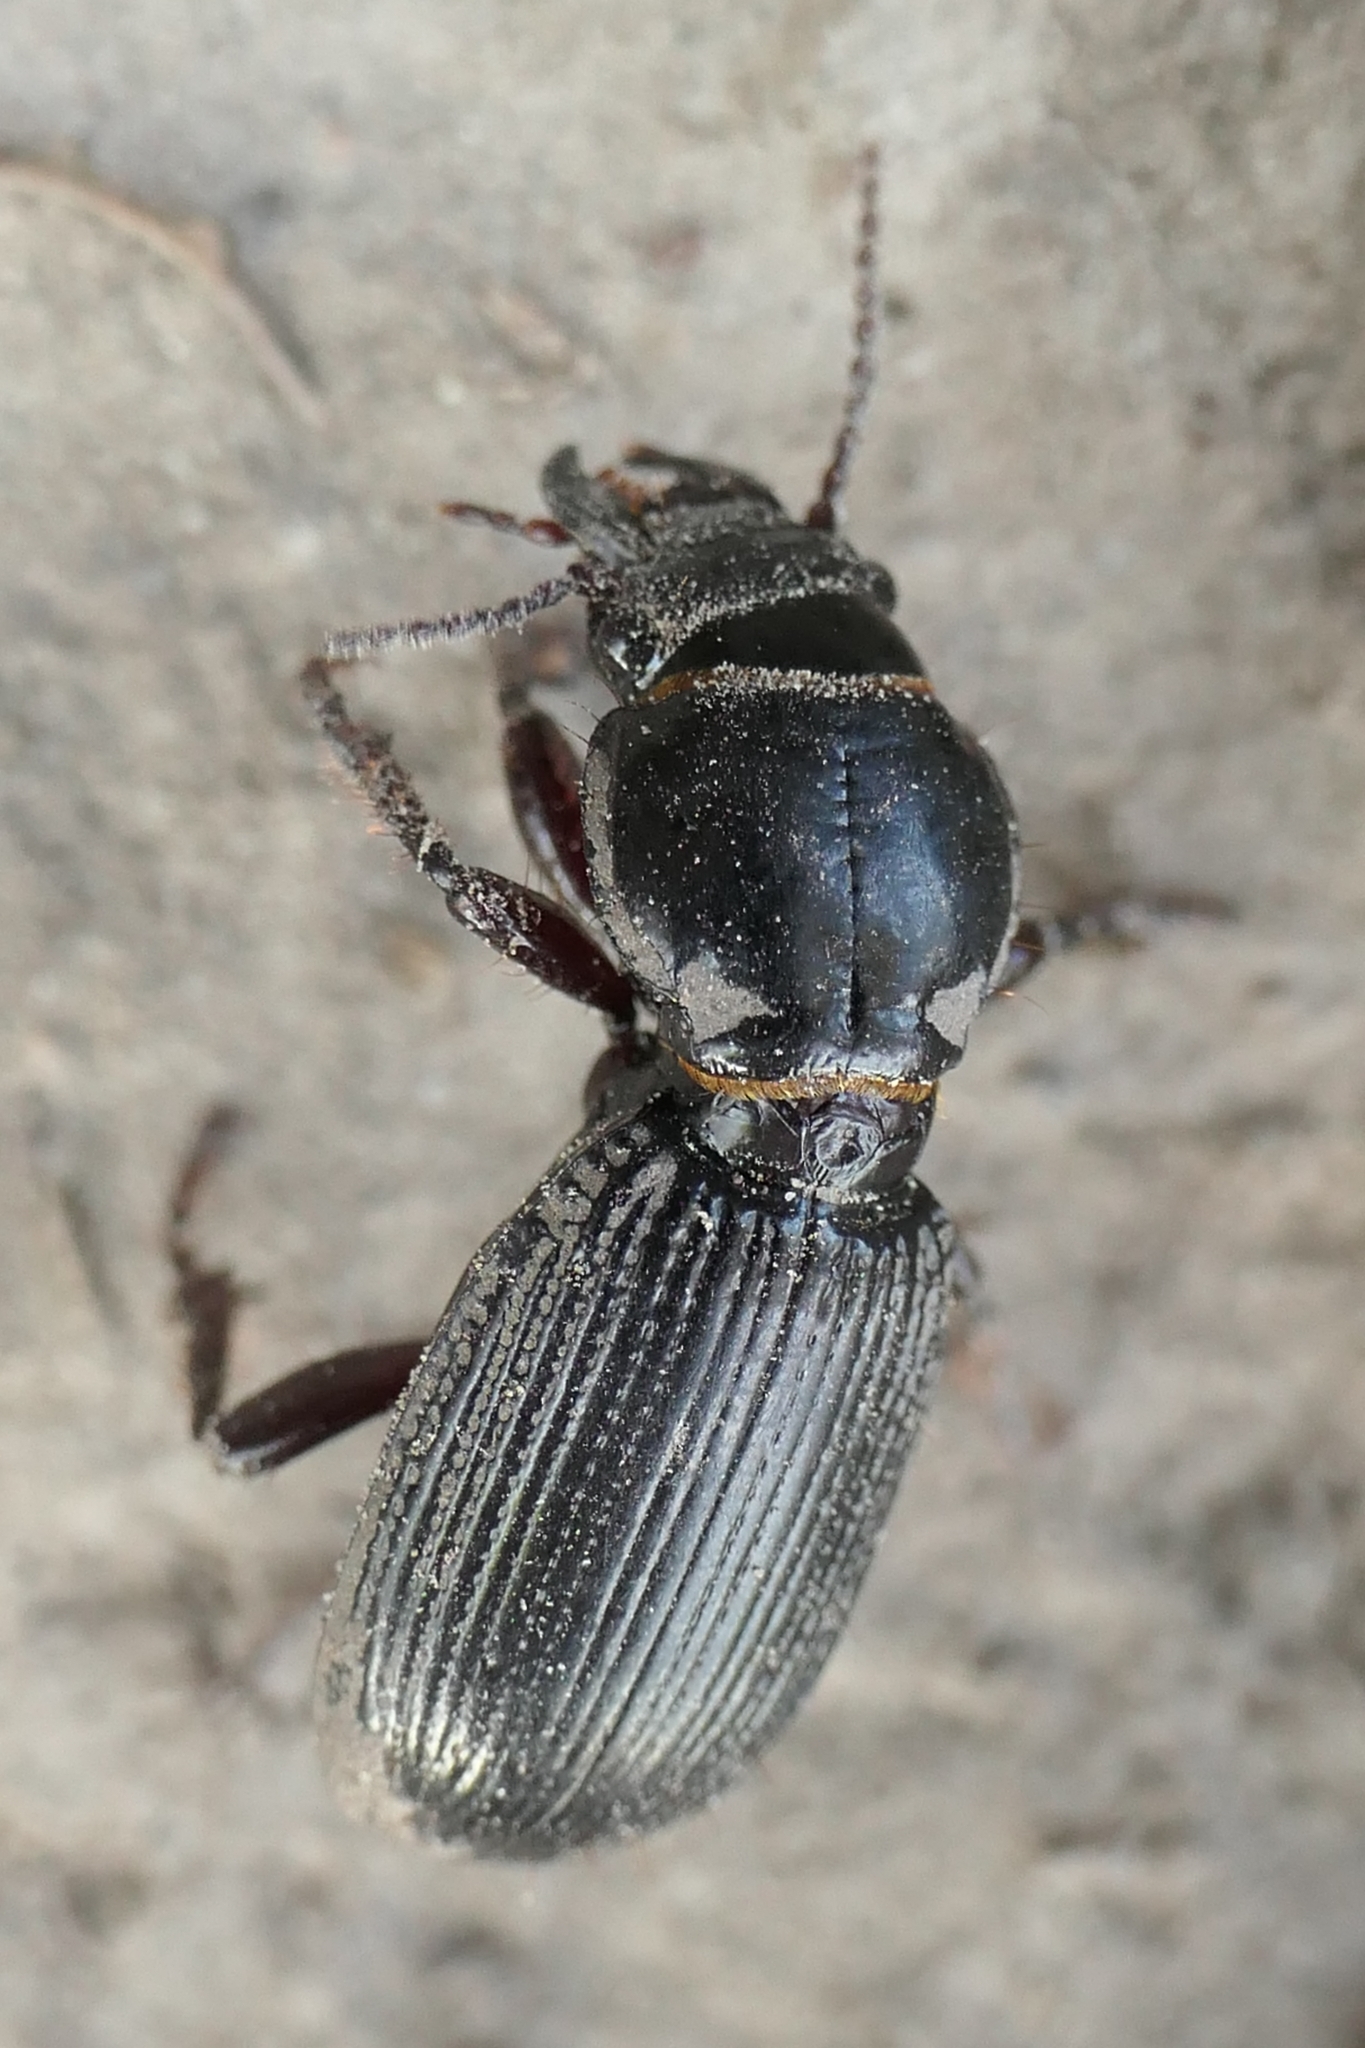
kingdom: Animalia
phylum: Arthropoda
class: Insecta
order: Coleoptera
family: Carabidae
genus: Mecodema
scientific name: Mecodema moniliferum
